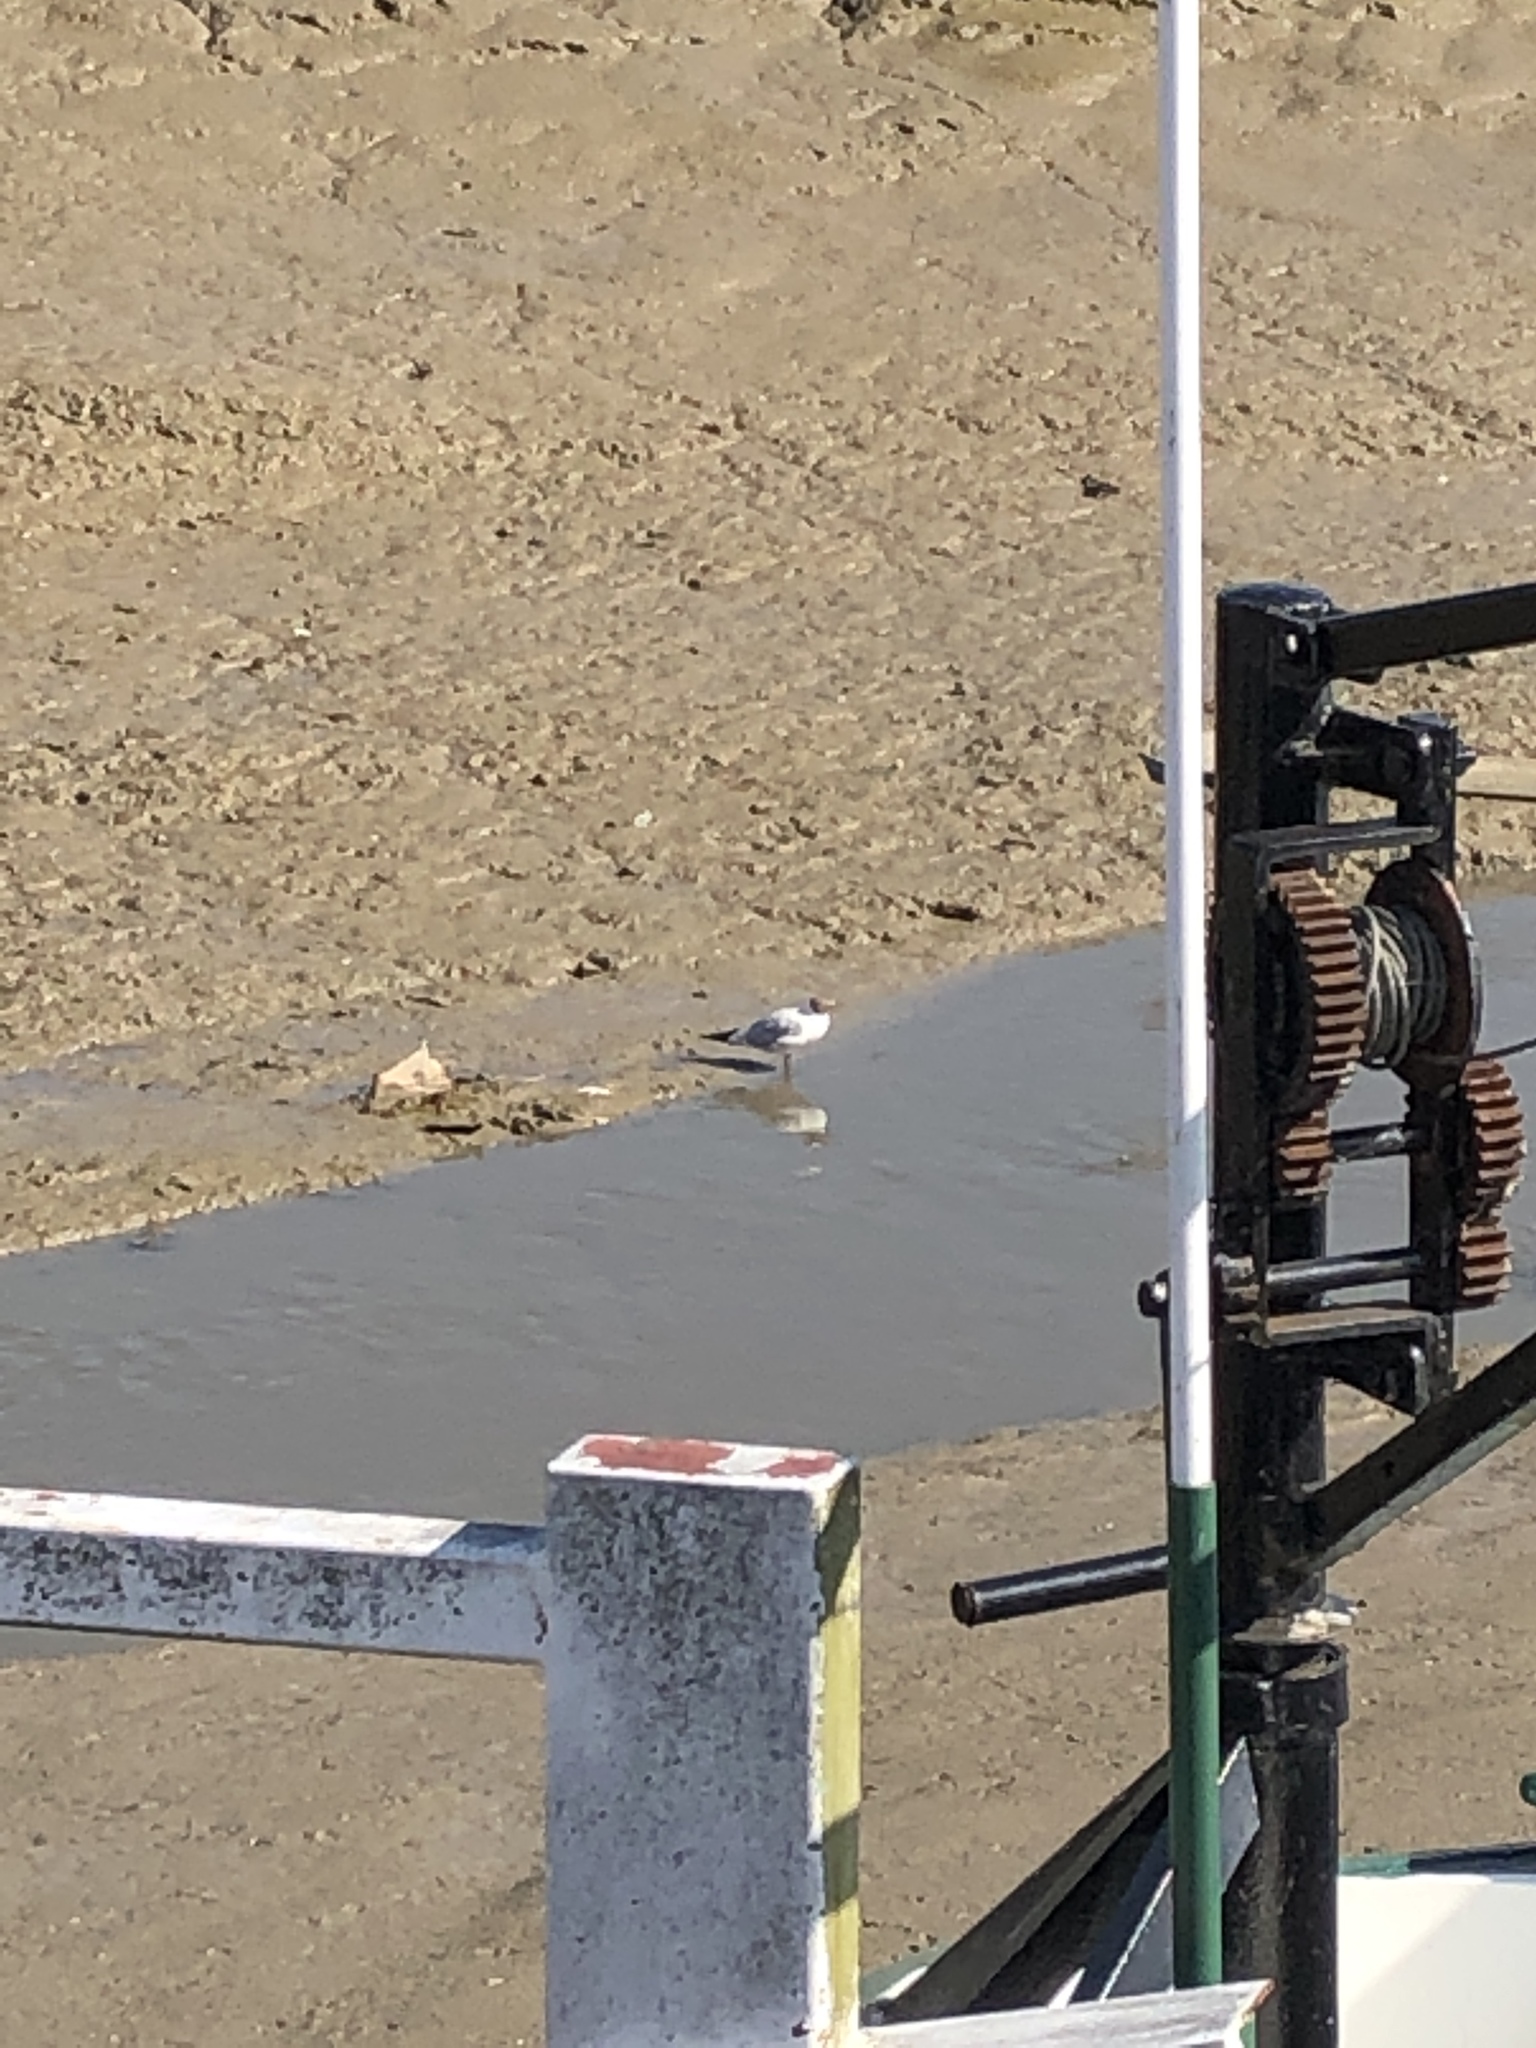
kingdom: Animalia
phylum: Chordata
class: Aves
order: Charadriiformes
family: Laridae
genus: Chroicocephalus
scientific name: Chroicocephalus ridibundus
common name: Black-headed gull
